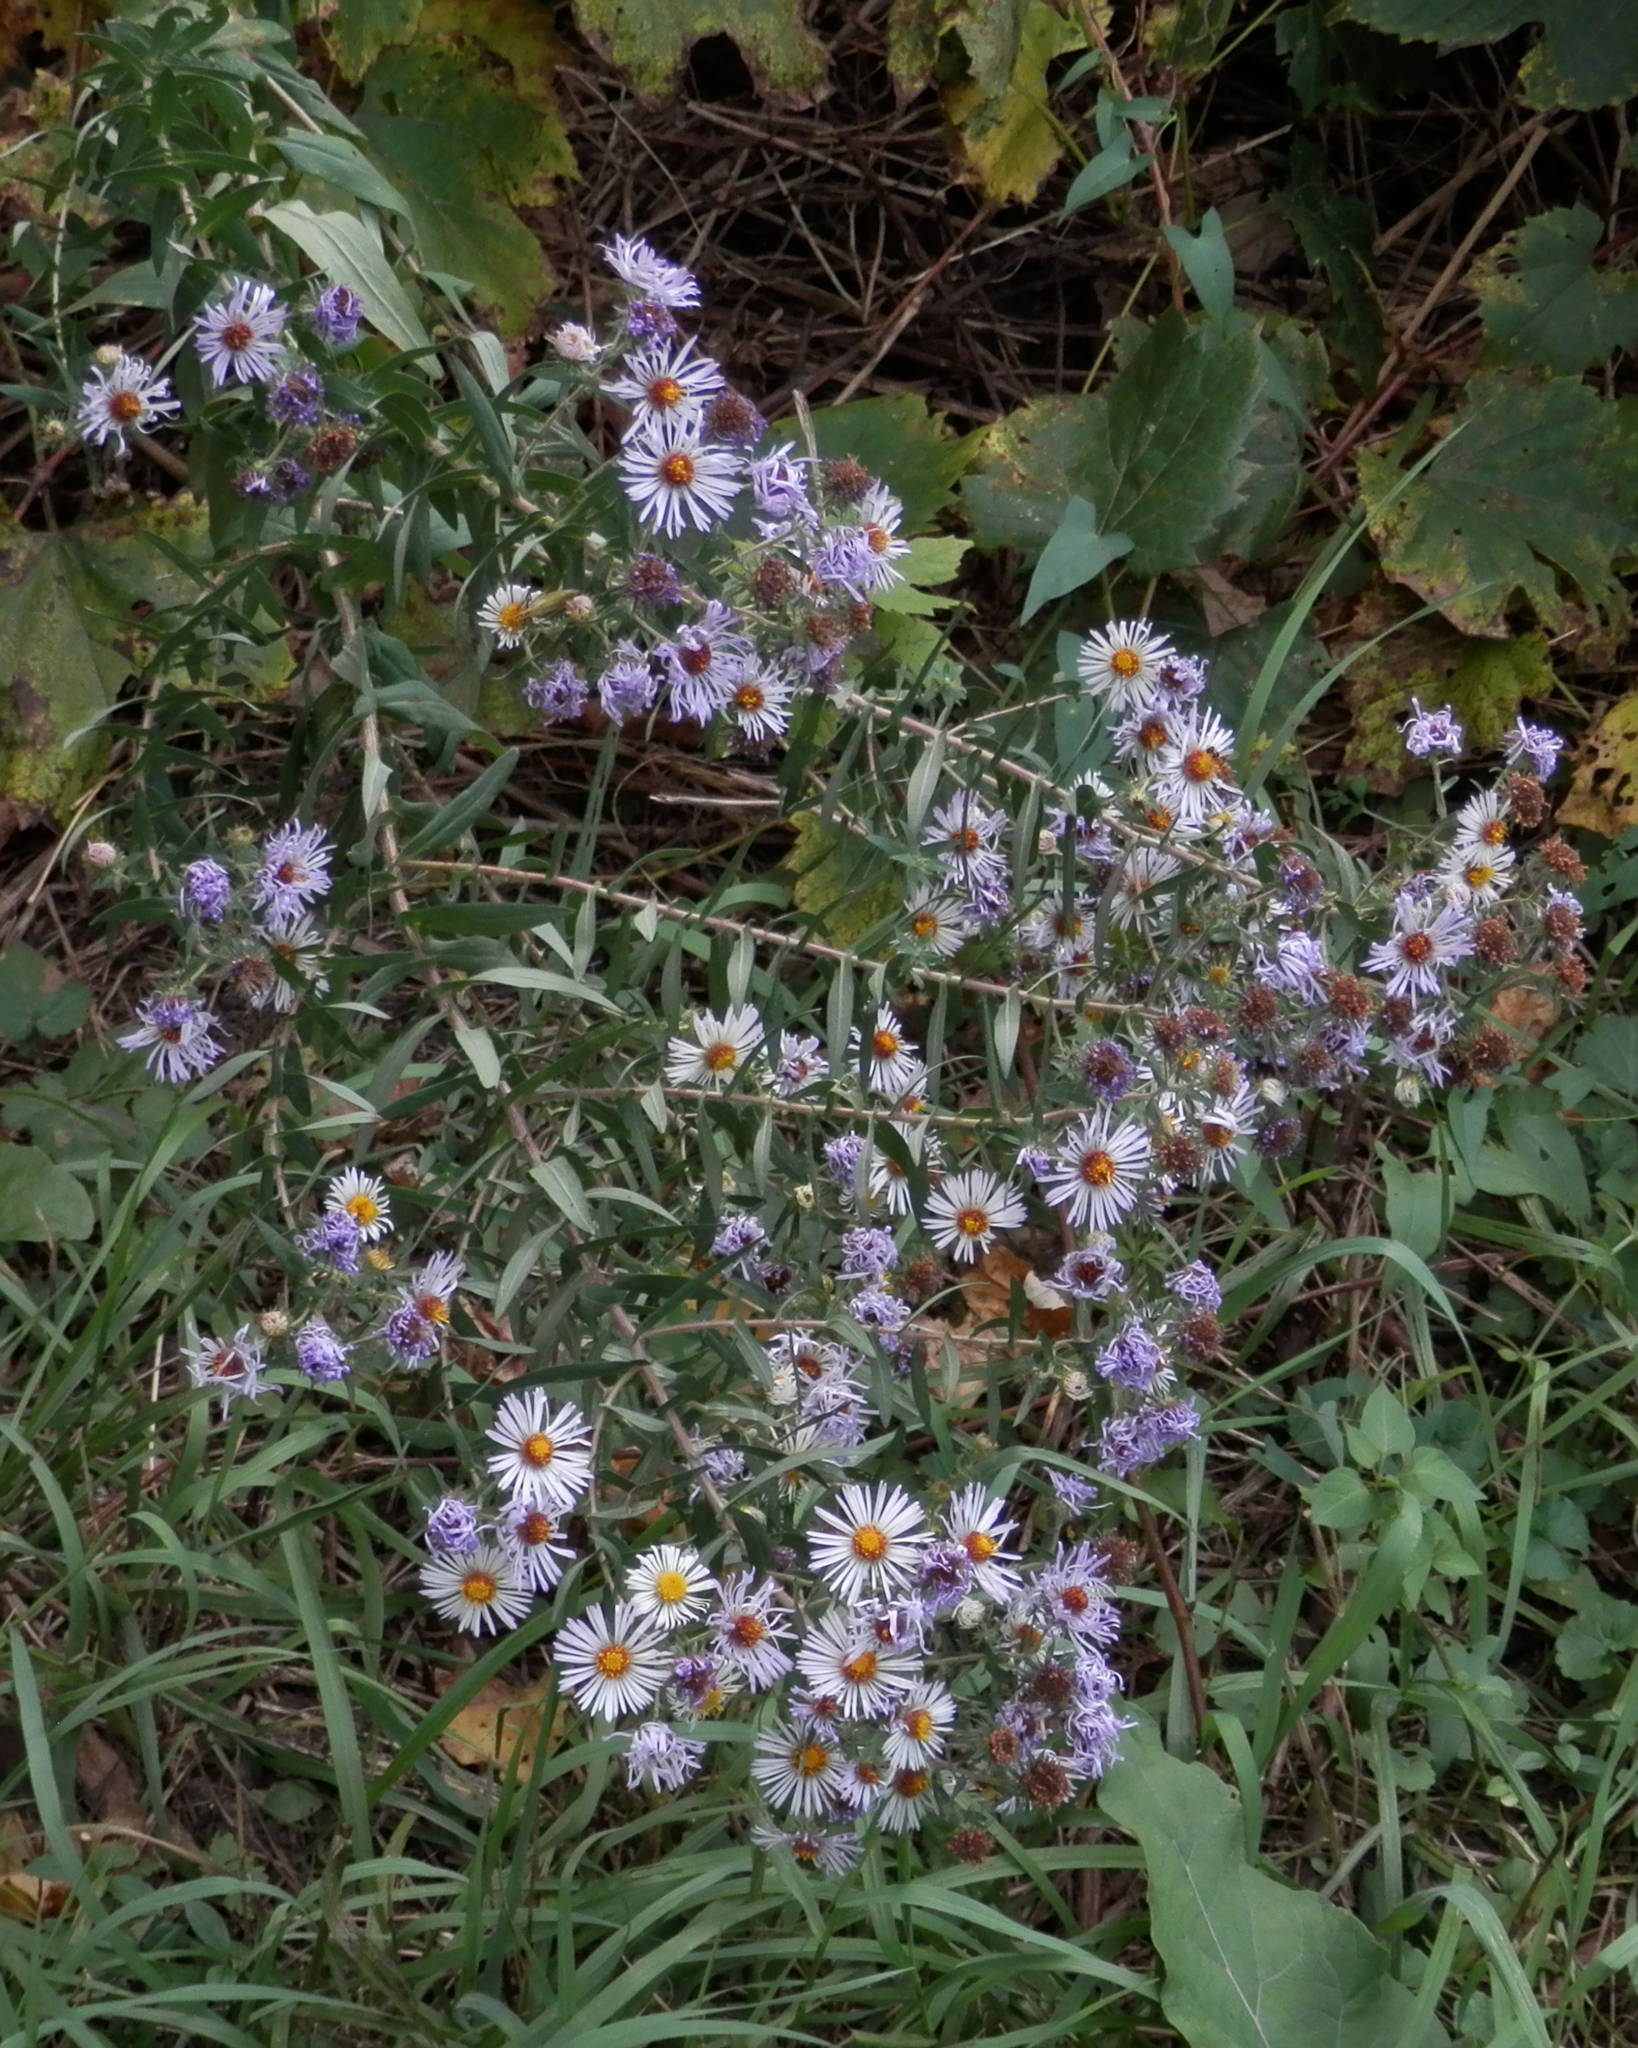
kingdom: Plantae
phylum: Tracheophyta
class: Magnoliopsida
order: Asterales
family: Asteraceae
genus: Symphyotrichum
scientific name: Symphyotrichum novae-angliae
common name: Michaelmas daisy
